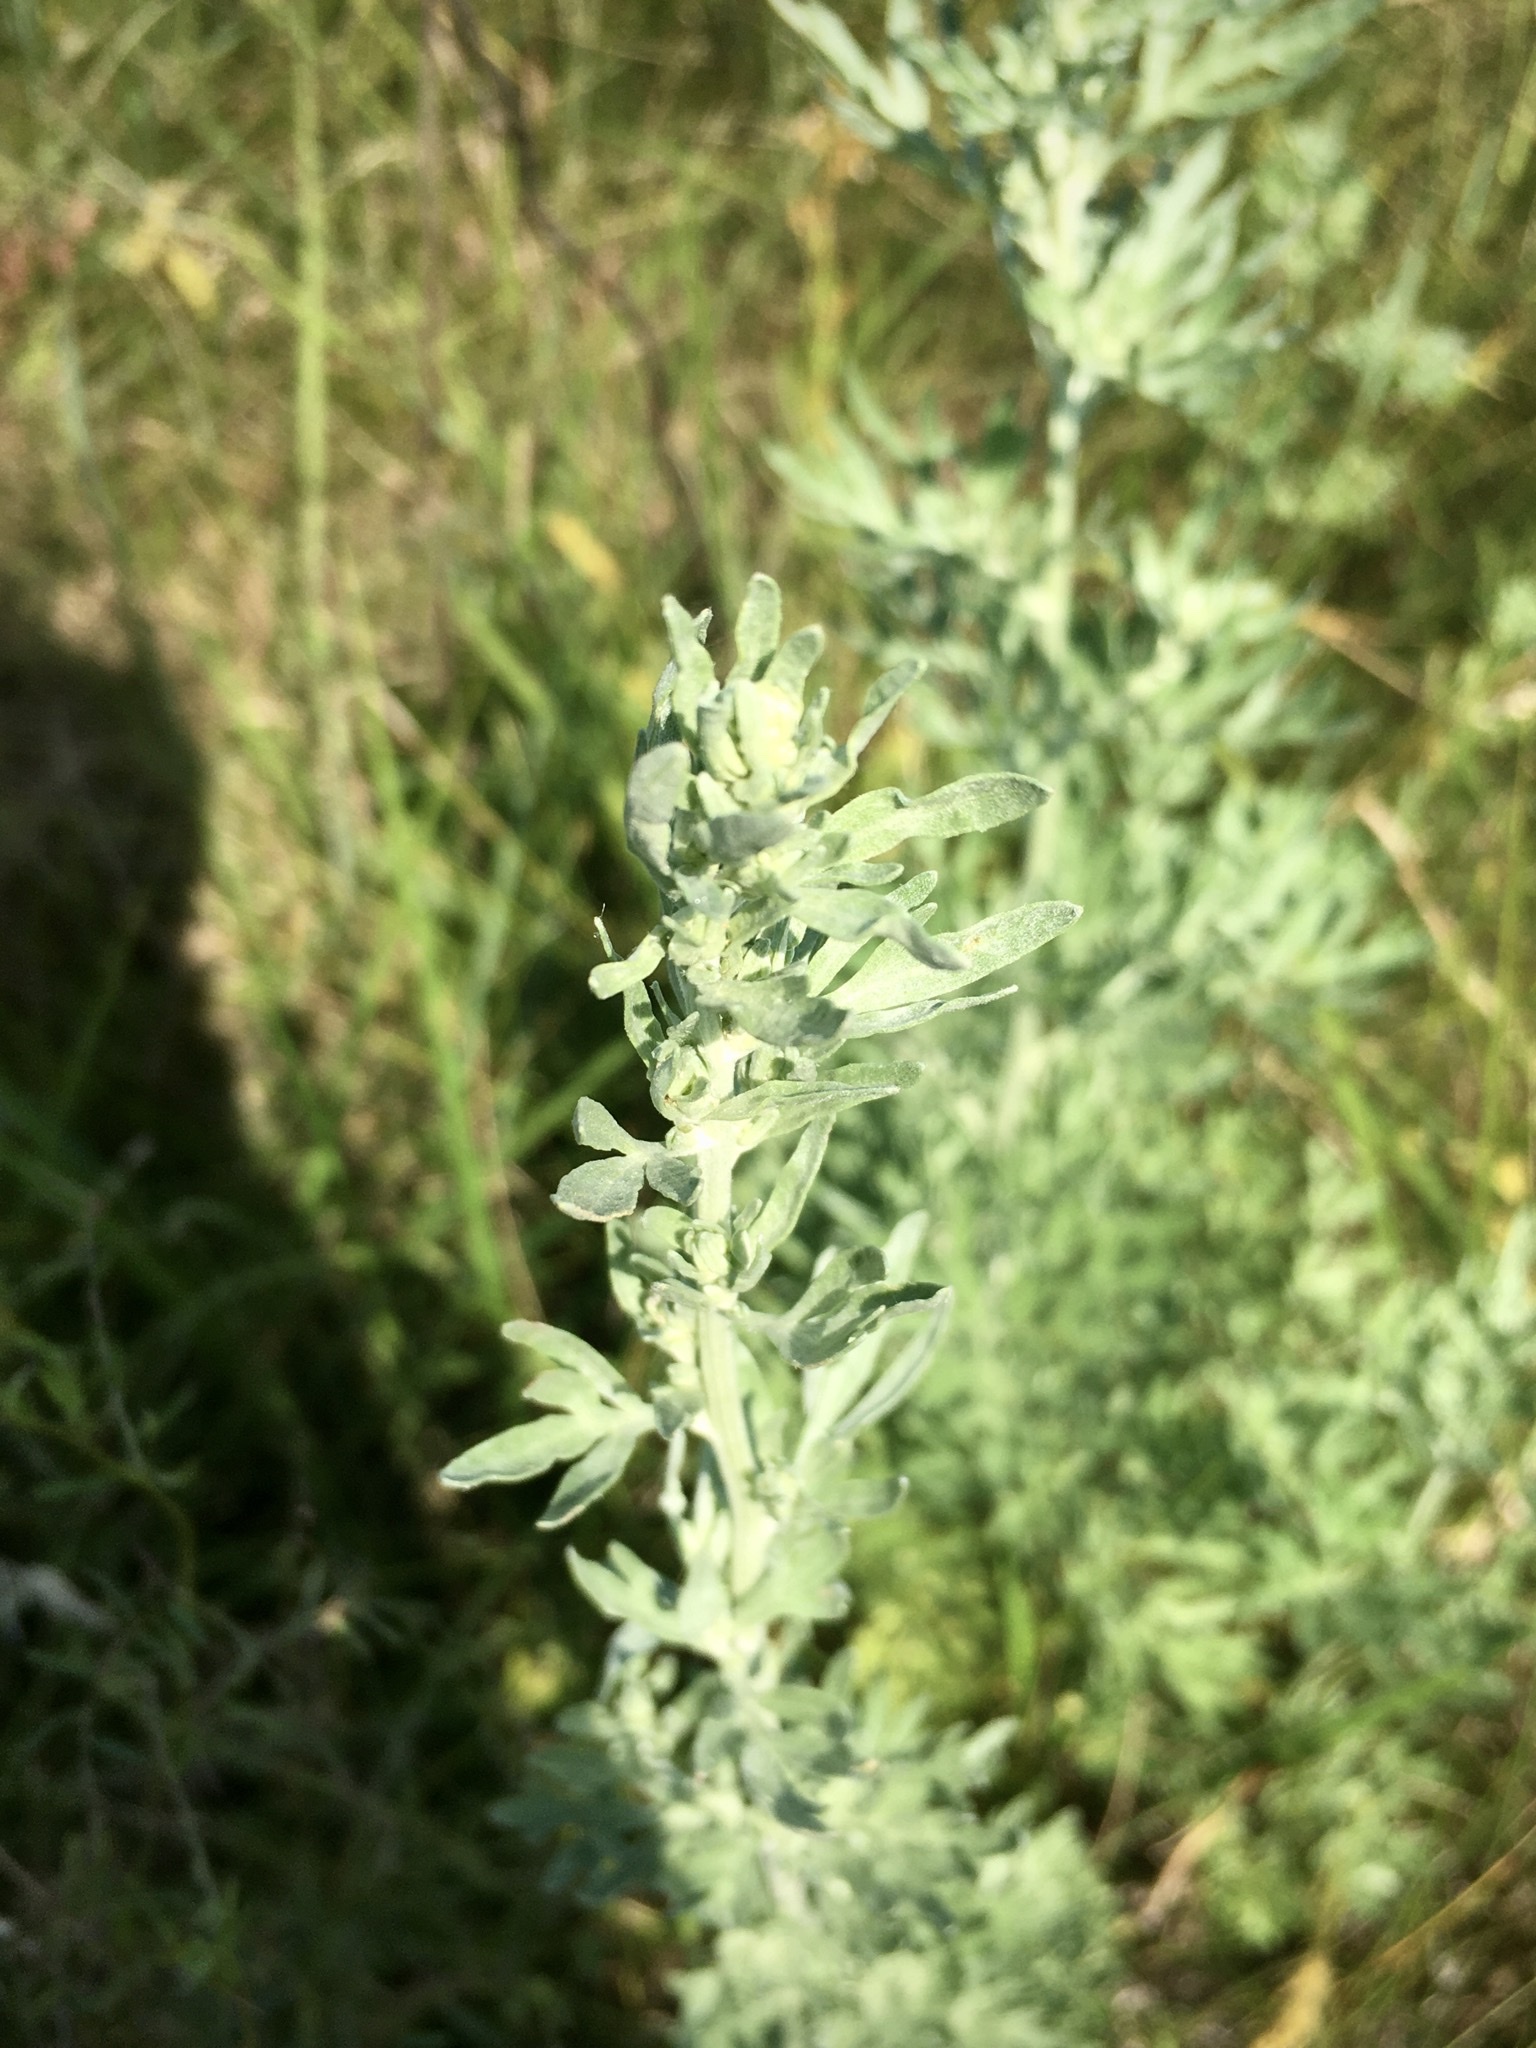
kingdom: Plantae
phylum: Tracheophyta
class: Magnoliopsida
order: Asterales
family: Asteraceae
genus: Artemisia
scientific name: Artemisia absinthium
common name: Wormwood
